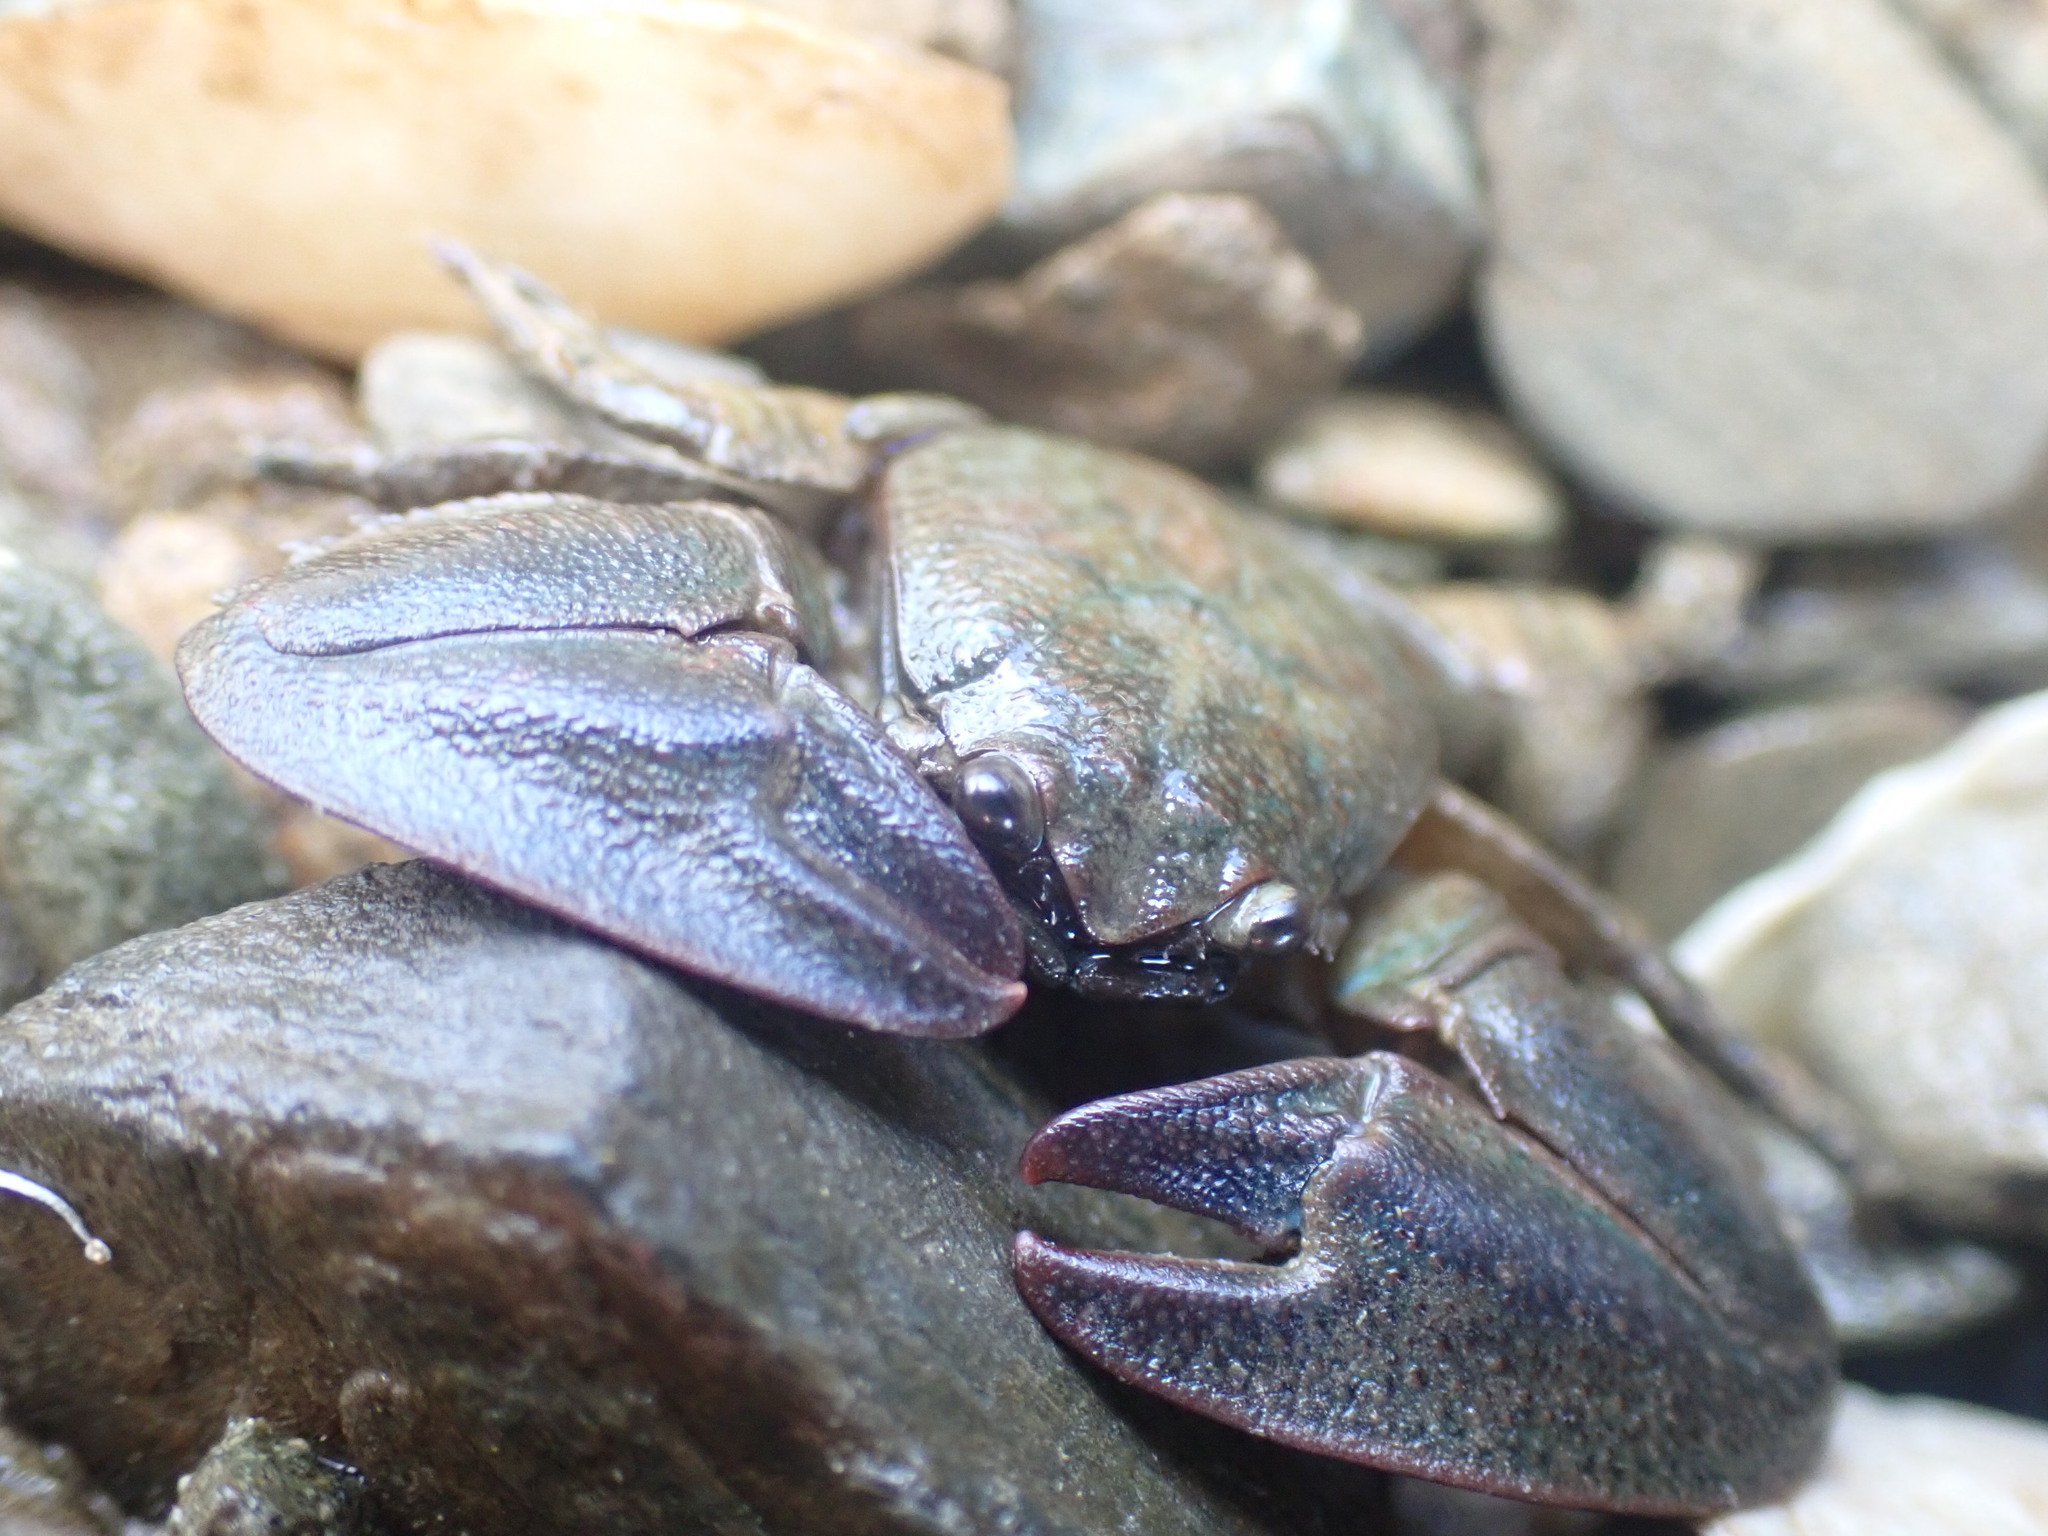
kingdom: Animalia
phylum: Arthropoda
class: Malacostraca
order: Decapoda
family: Porcellanidae
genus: Petrolisthes
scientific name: Petrolisthes elongatus
